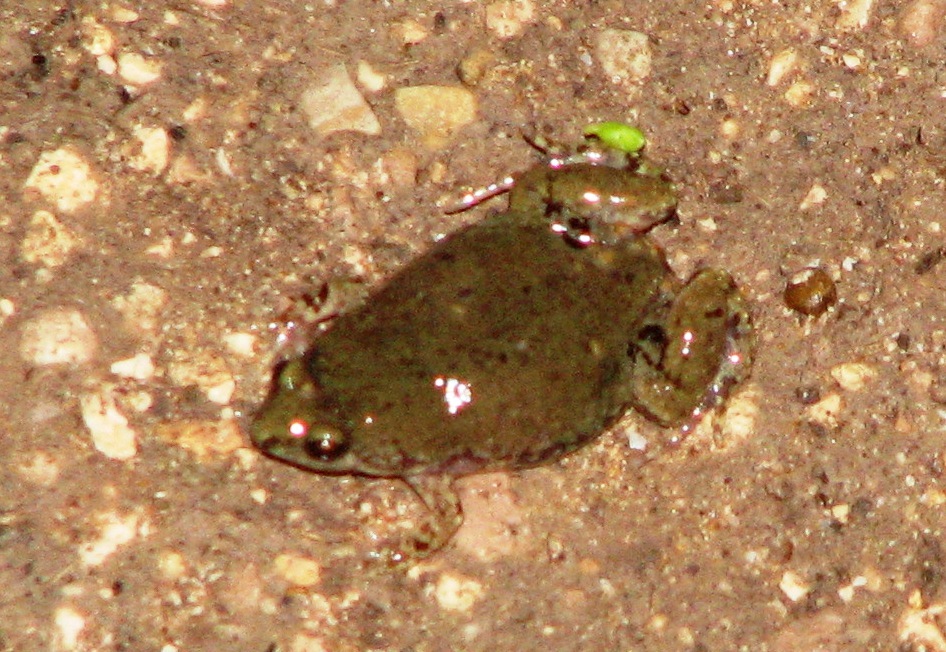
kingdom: Animalia
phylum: Chordata
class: Amphibia
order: Anura
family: Microhylidae
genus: Gastrophryne
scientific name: Gastrophryne olivacea
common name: Great plains narrow-mouthed toad
